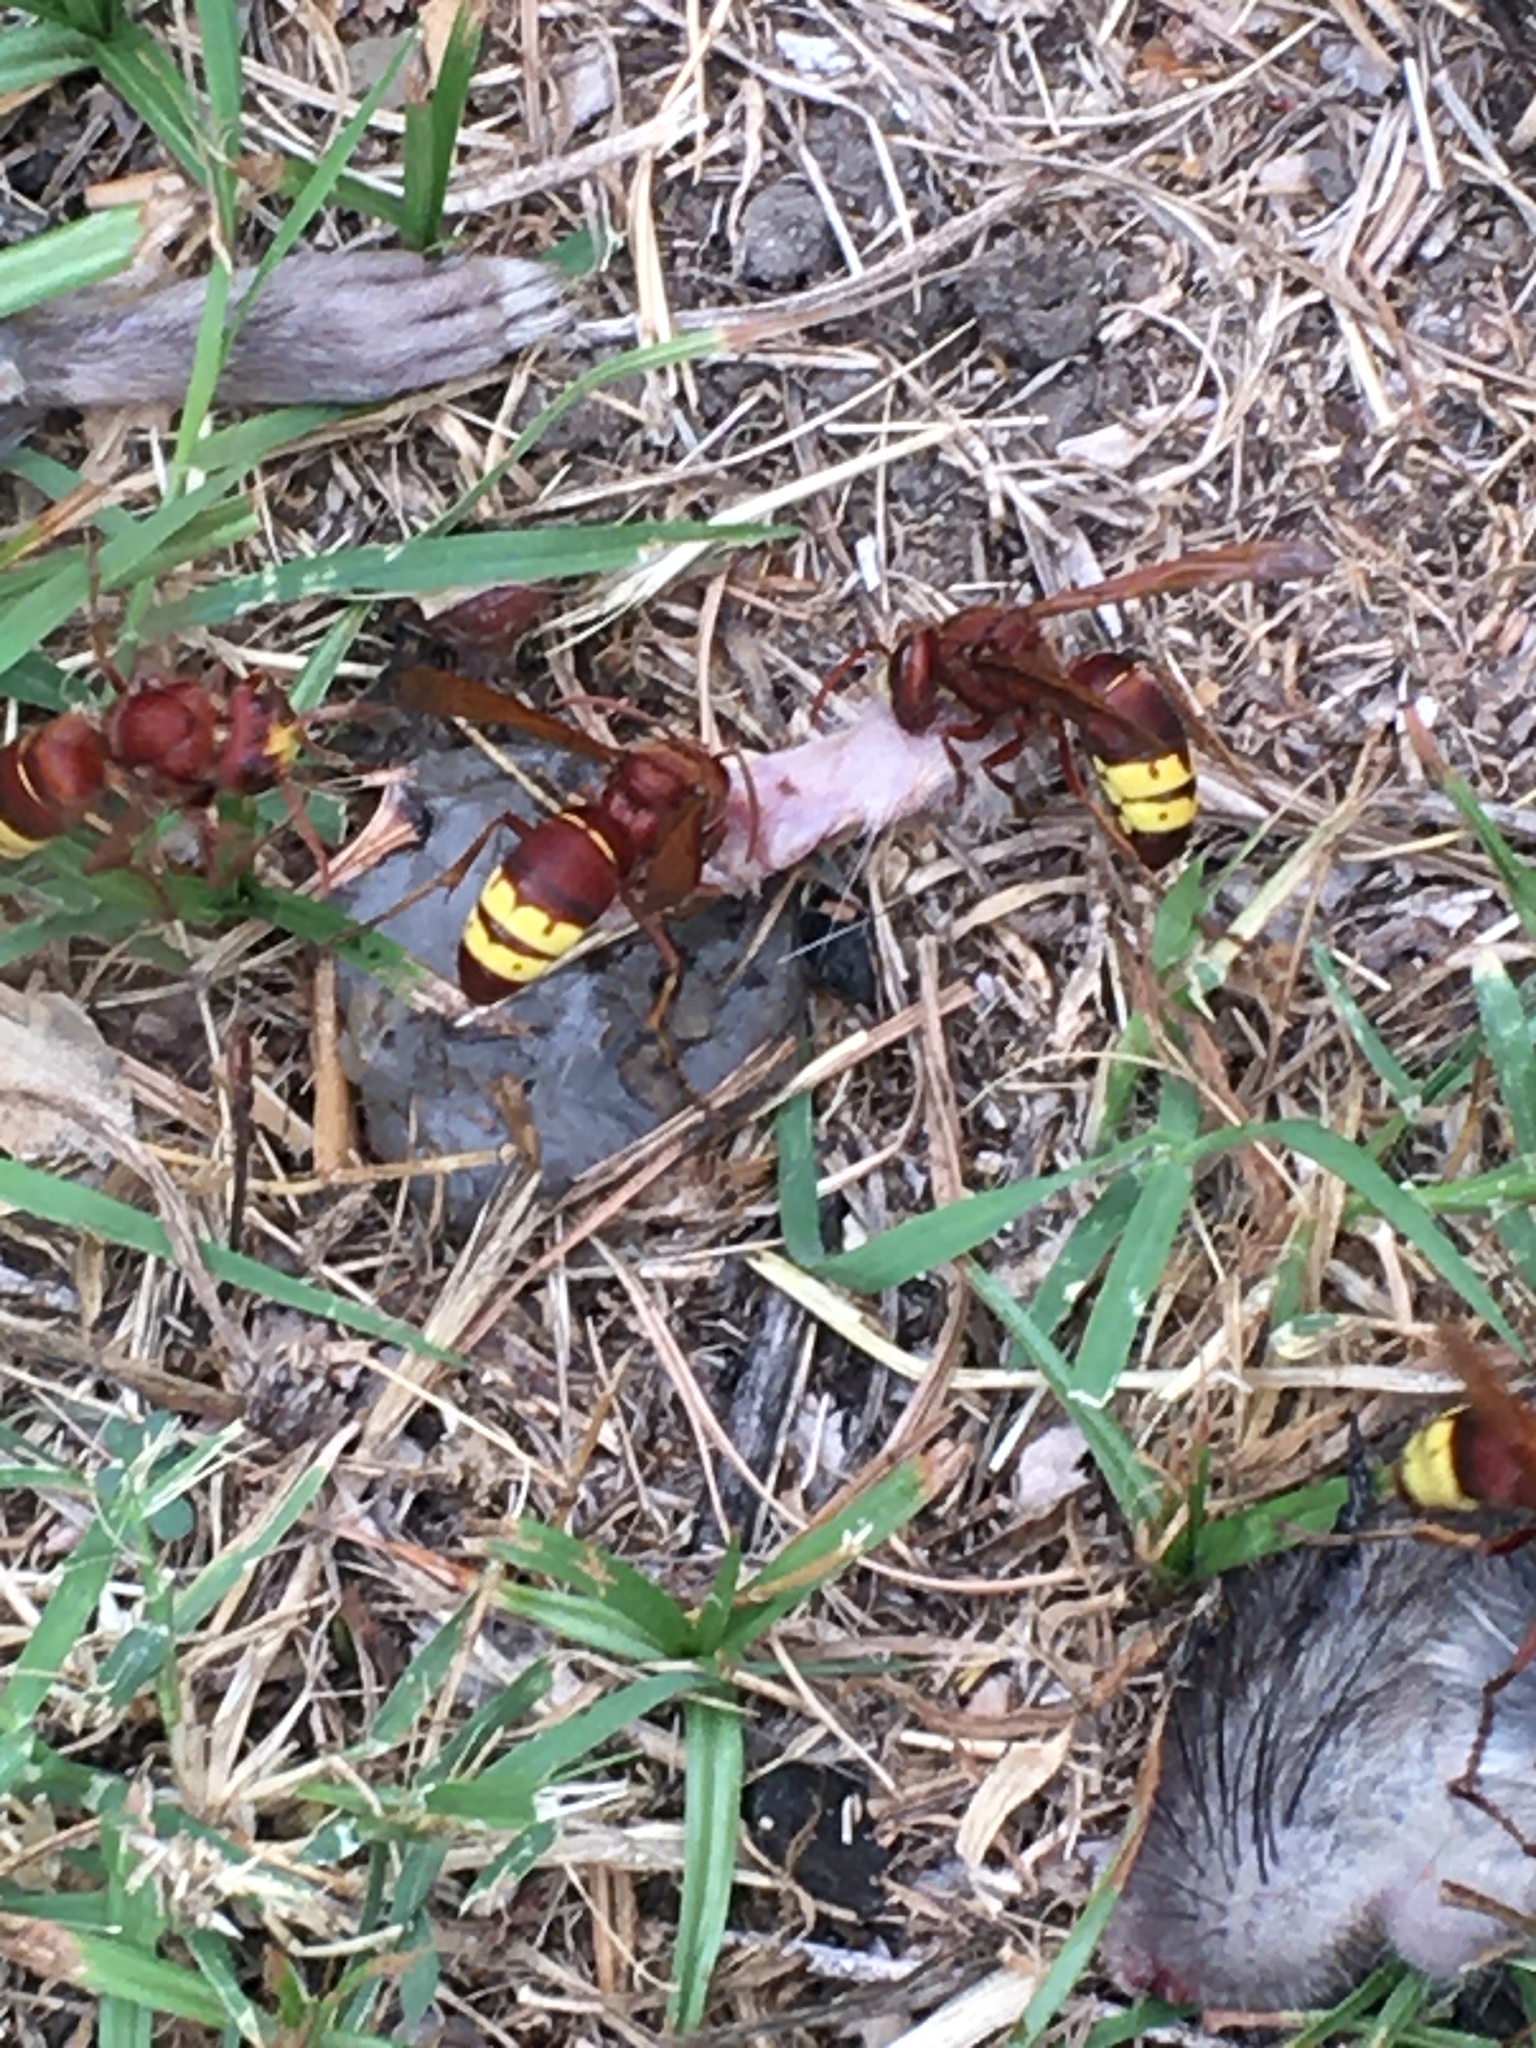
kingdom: Animalia
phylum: Arthropoda
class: Insecta
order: Hymenoptera
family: Vespidae
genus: Vespa
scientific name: Vespa orientalis
